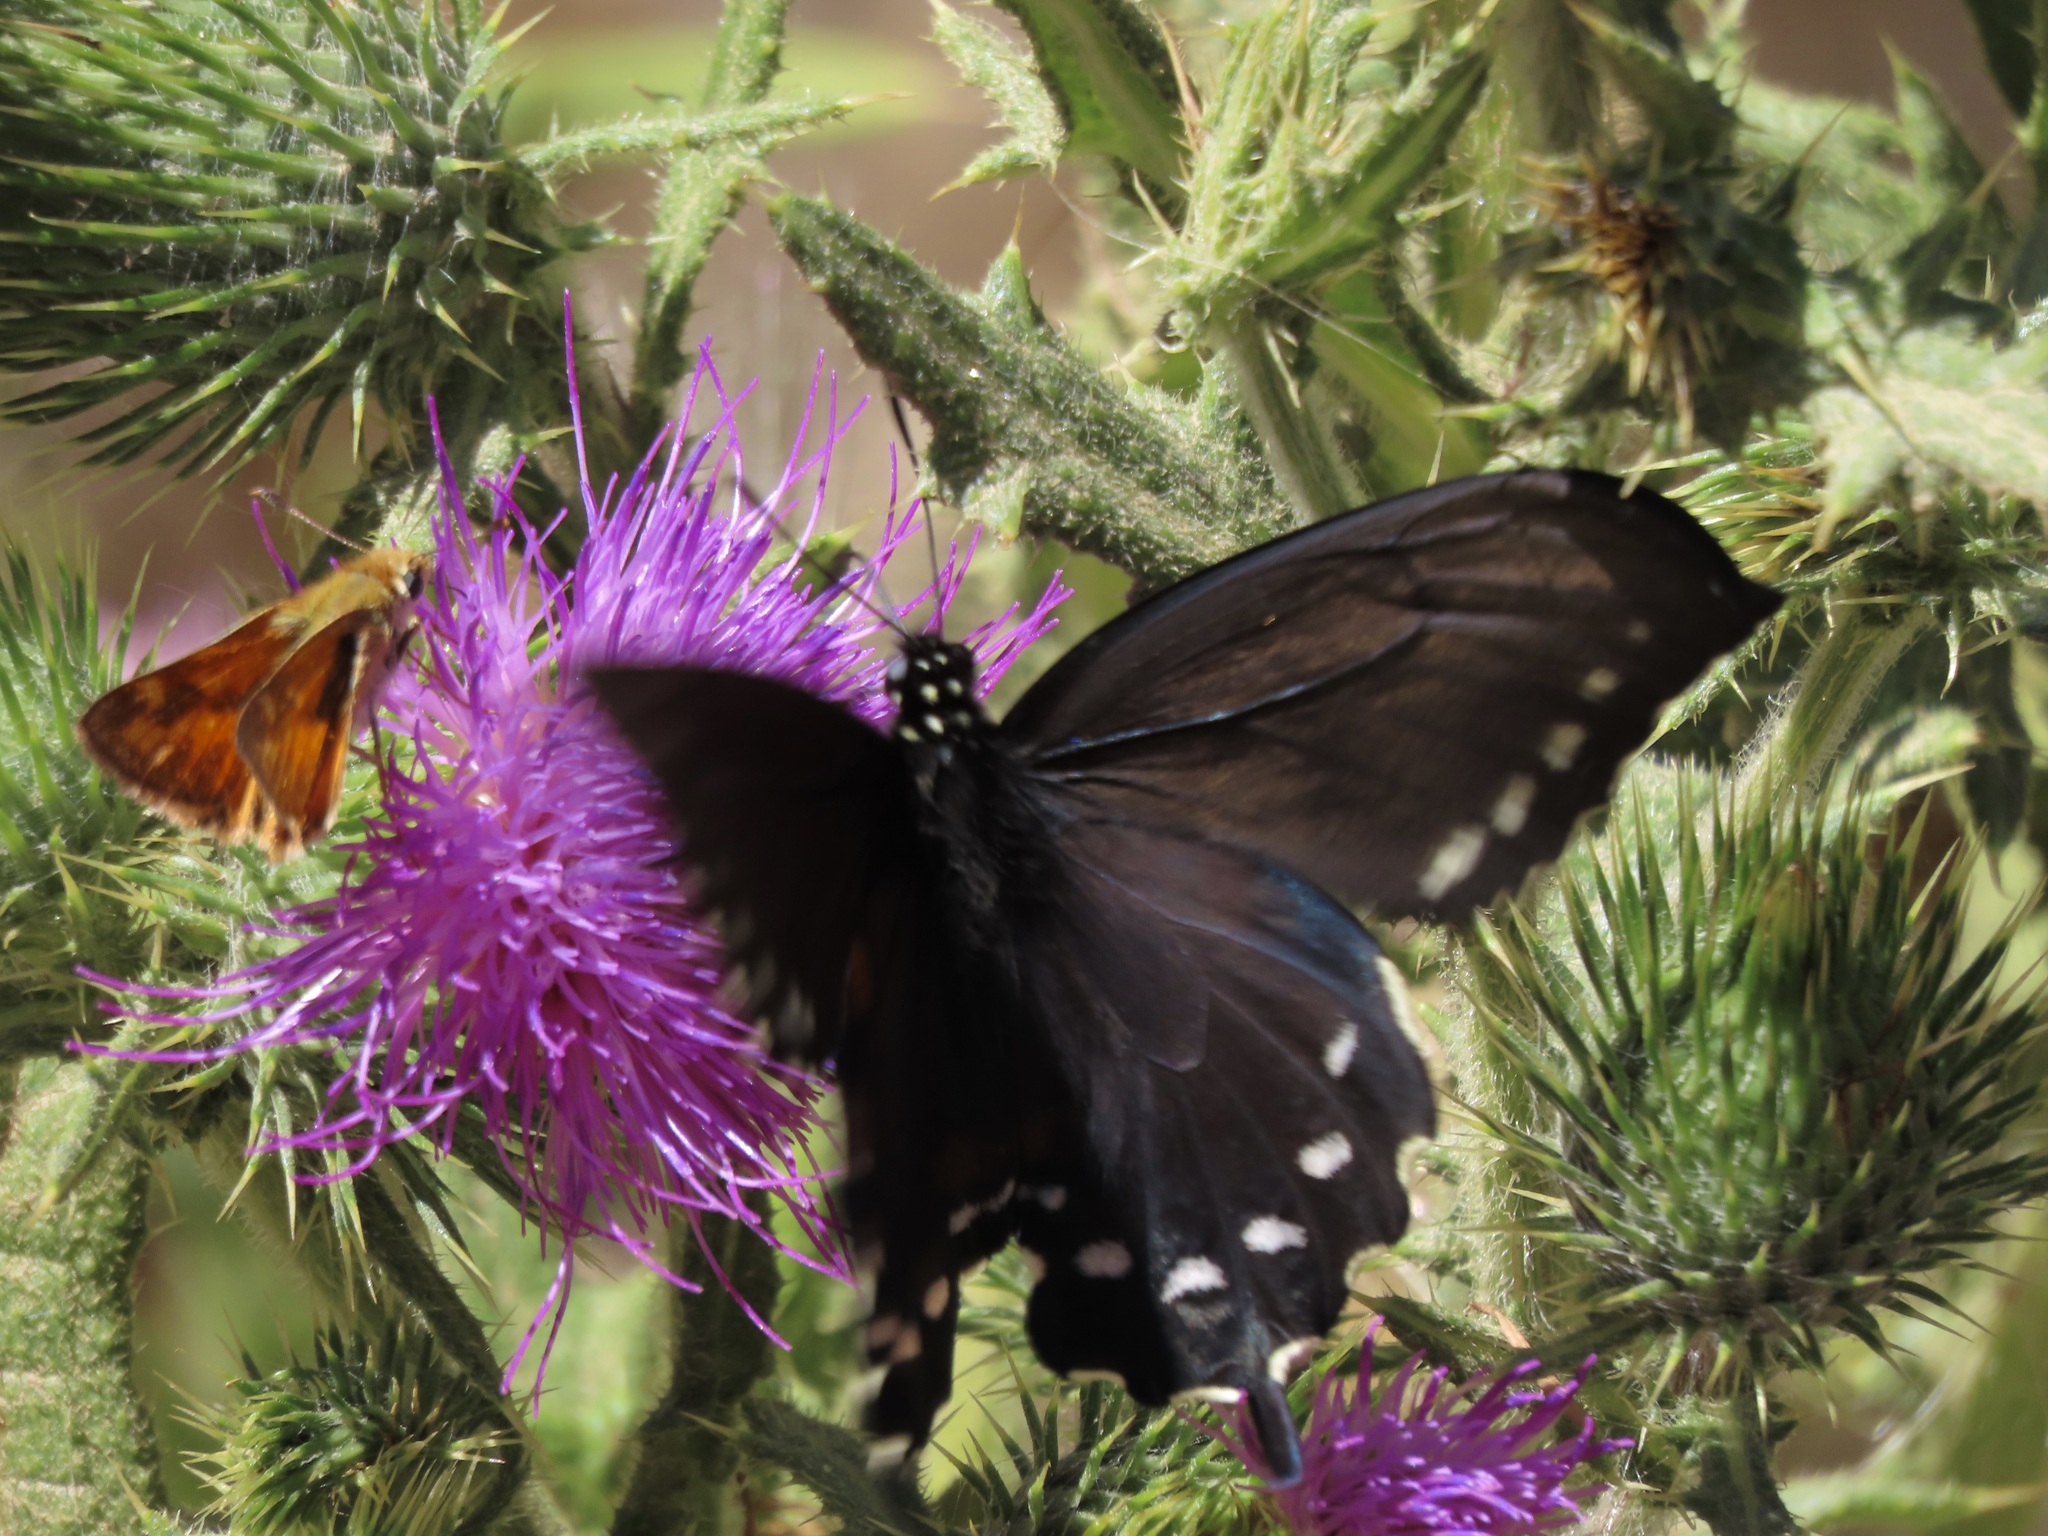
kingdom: Animalia
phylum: Arthropoda
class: Insecta
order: Lepidoptera
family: Papilionidae
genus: Battus
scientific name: Battus philenor
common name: Pipevine swallowtail
